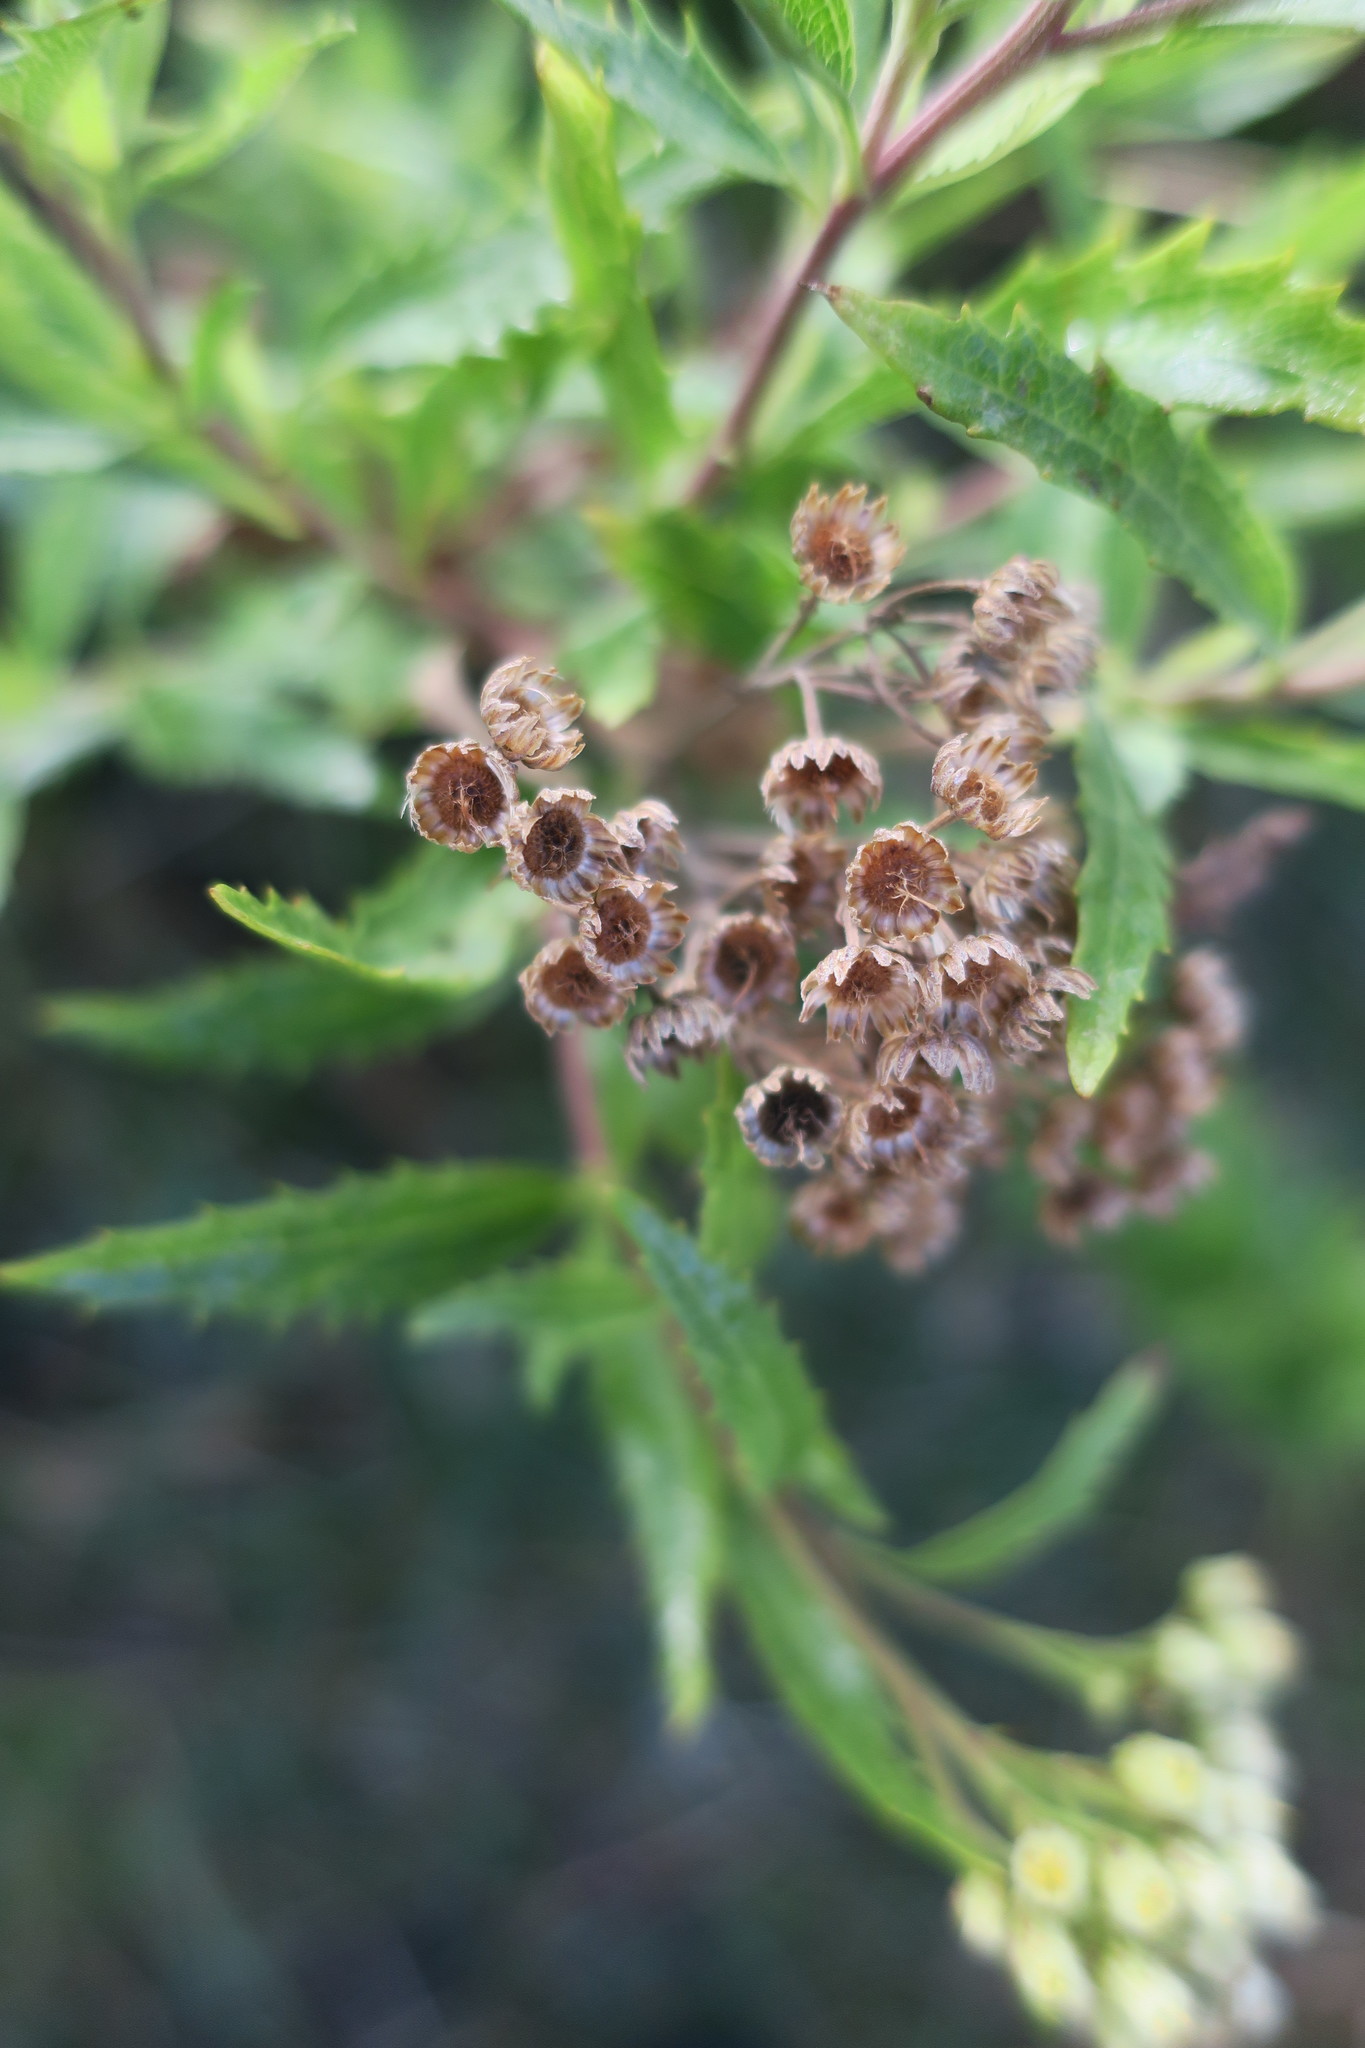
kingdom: Plantae
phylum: Tracheophyta
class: Magnoliopsida
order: Asterales
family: Asteraceae
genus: Nidorella
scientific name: Nidorella ivifolia
